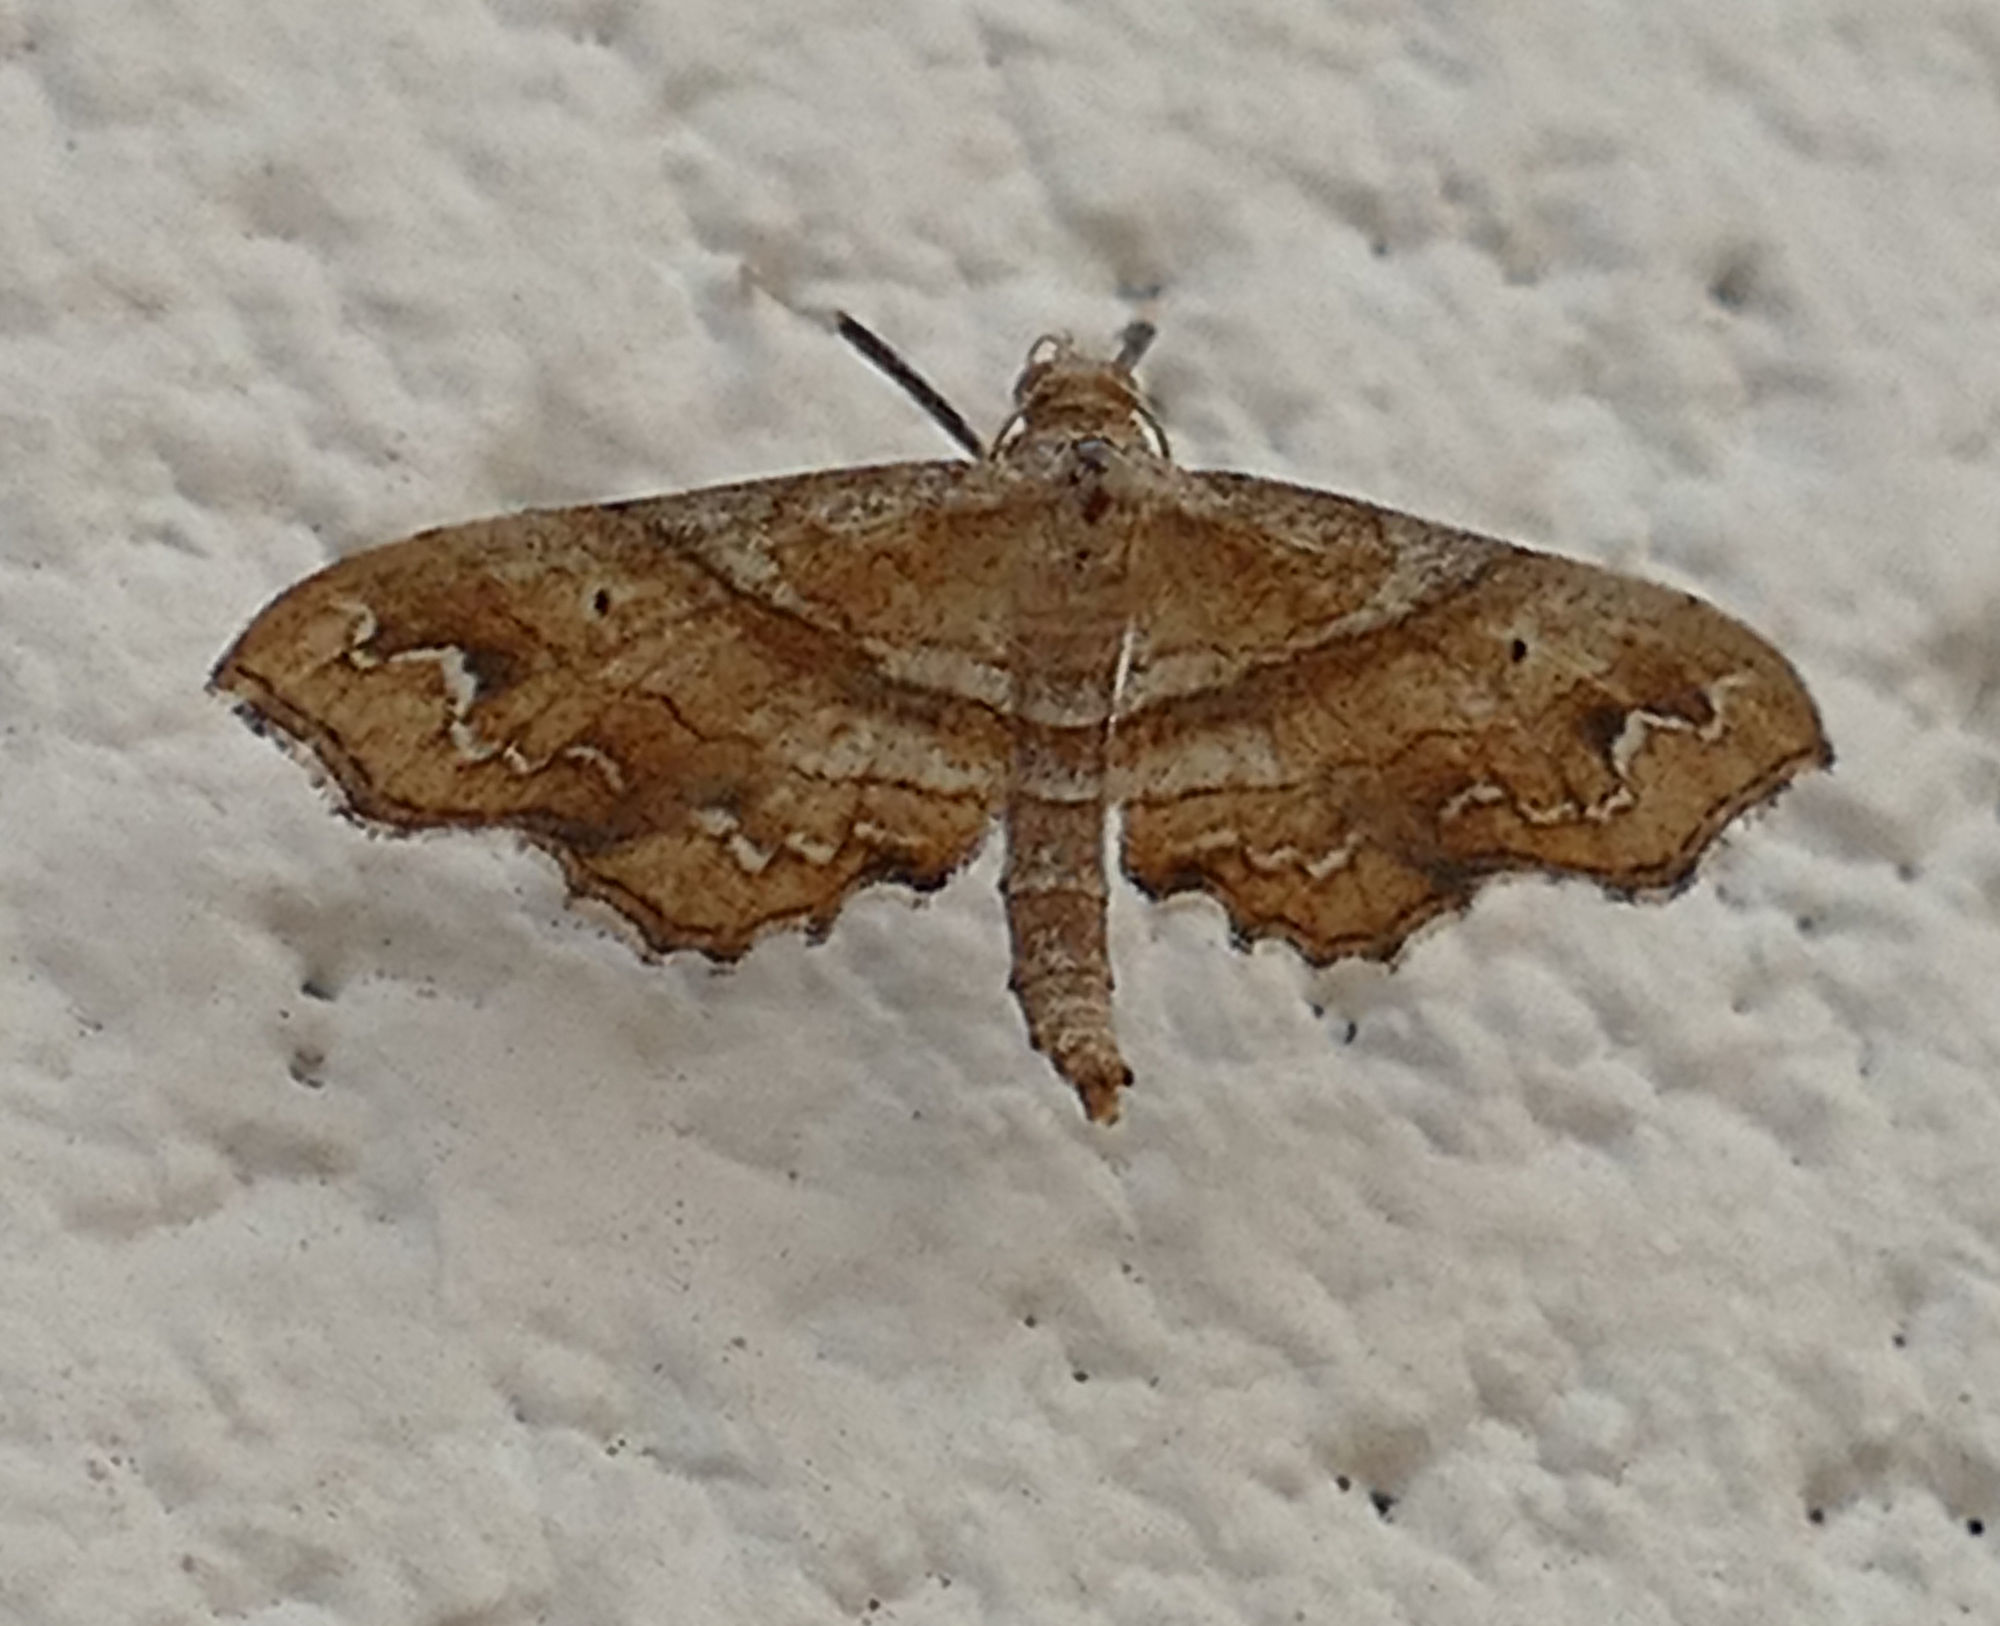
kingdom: Animalia
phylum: Arthropoda
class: Insecta
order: Lepidoptera
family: Geometridae
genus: Odontoptila
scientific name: Odontoptila obrimo
